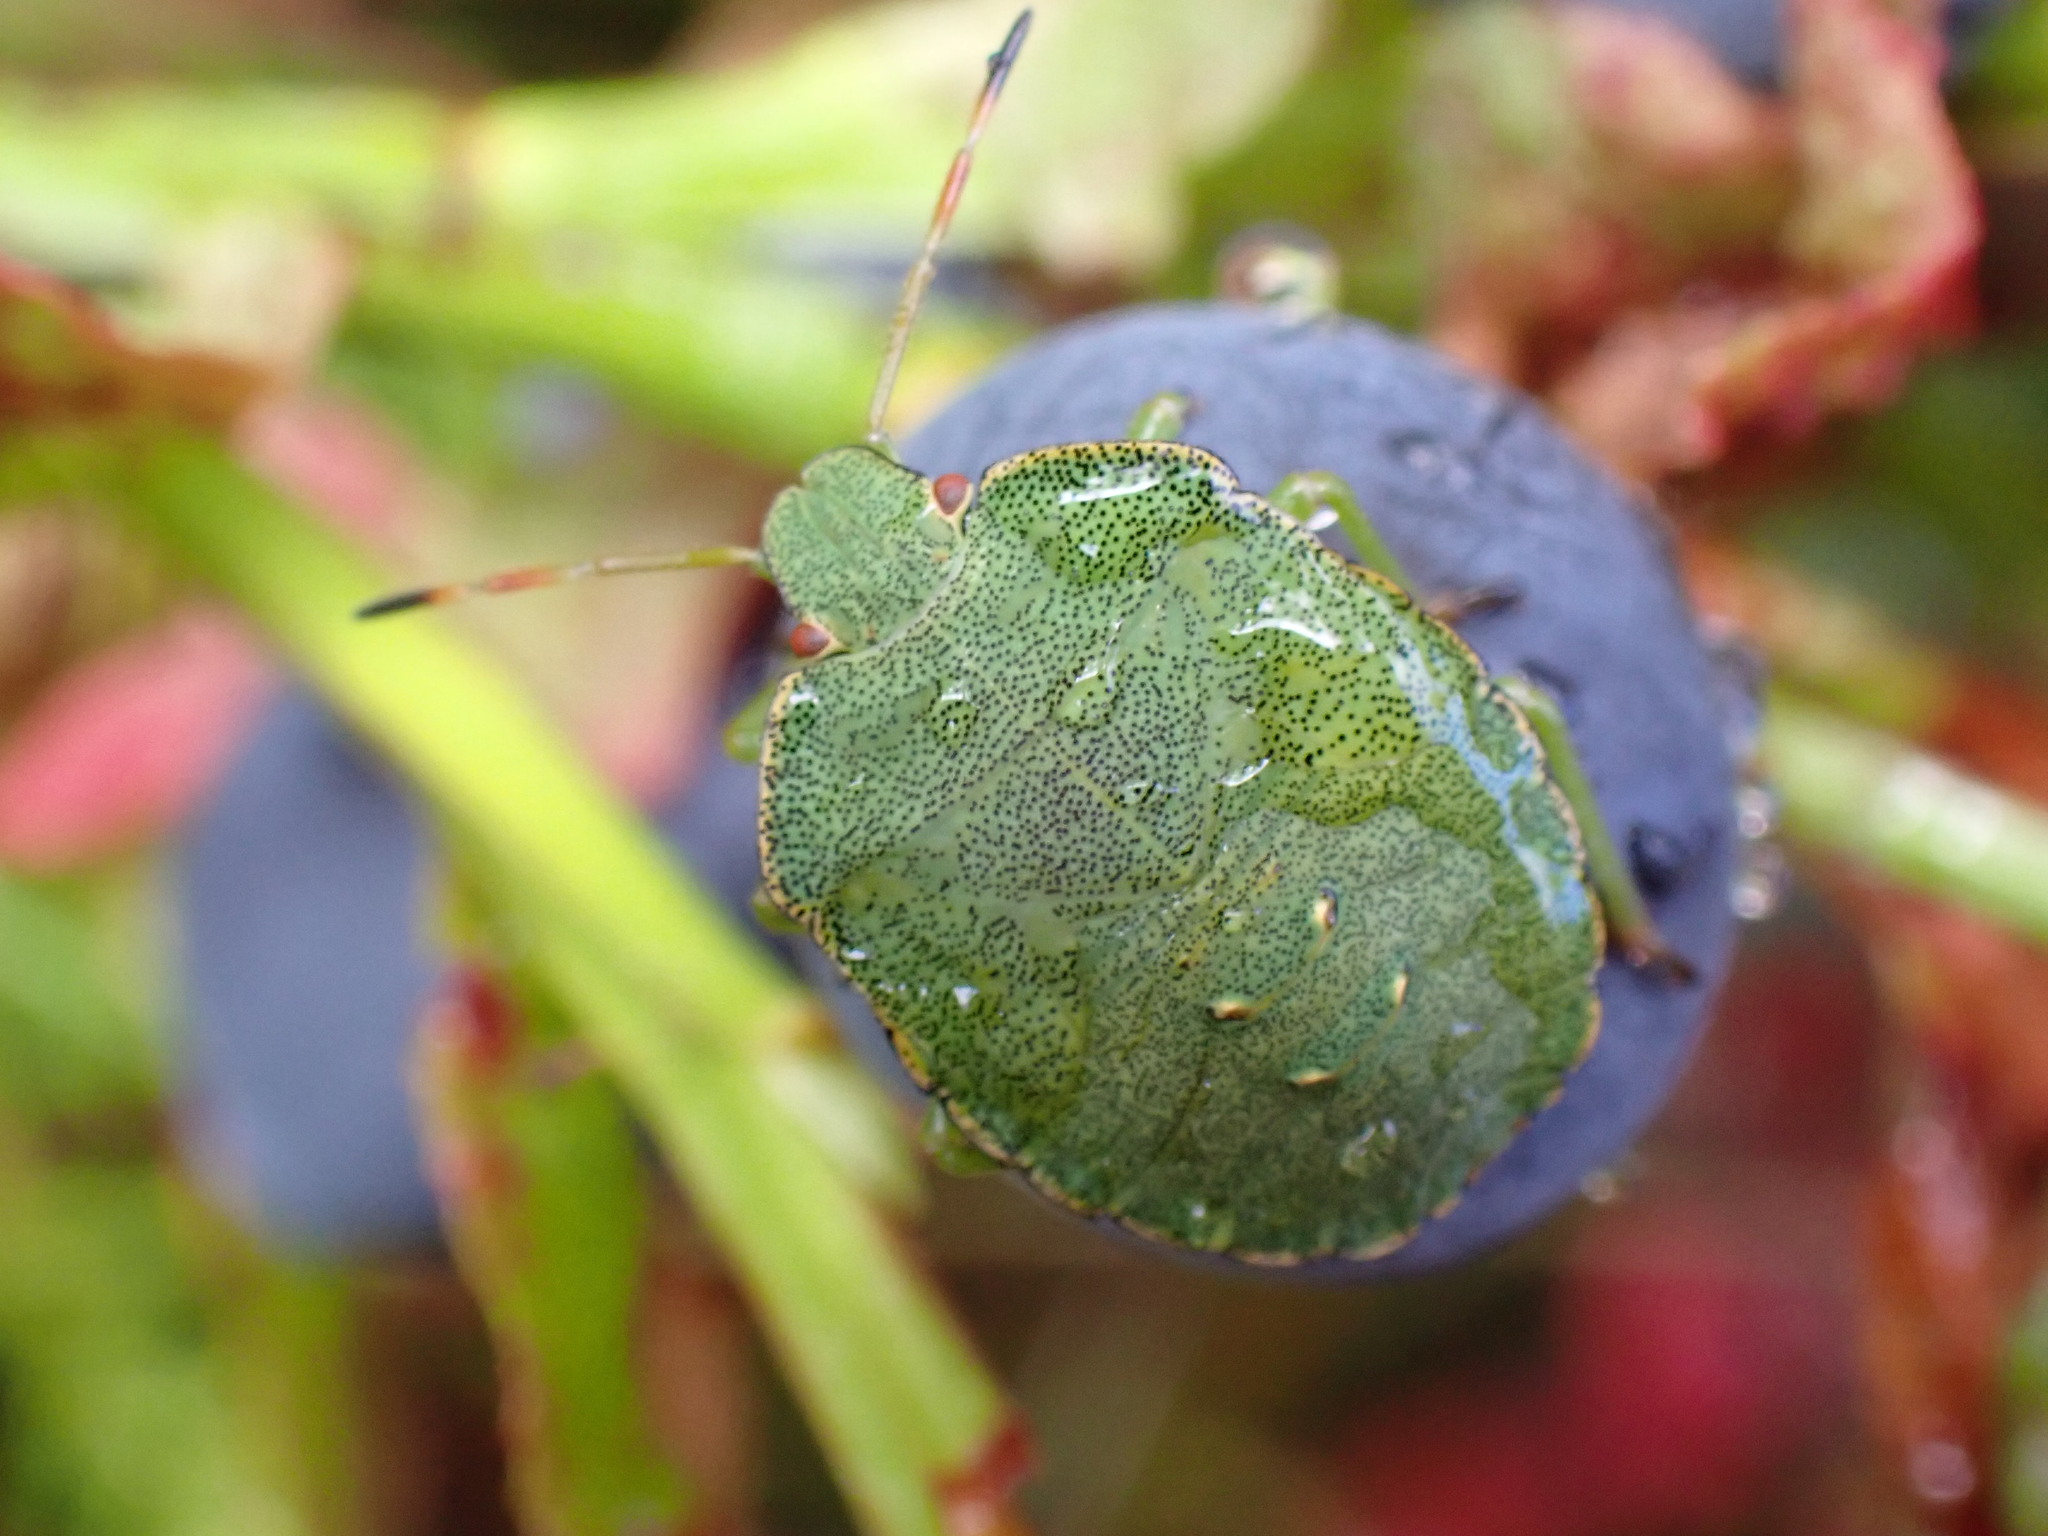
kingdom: Animalia
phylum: Arthropoda
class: Insecta
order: Hemiptera
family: Pentatomidae
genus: Palomena
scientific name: Palomena prasina
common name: Green shieldbug
